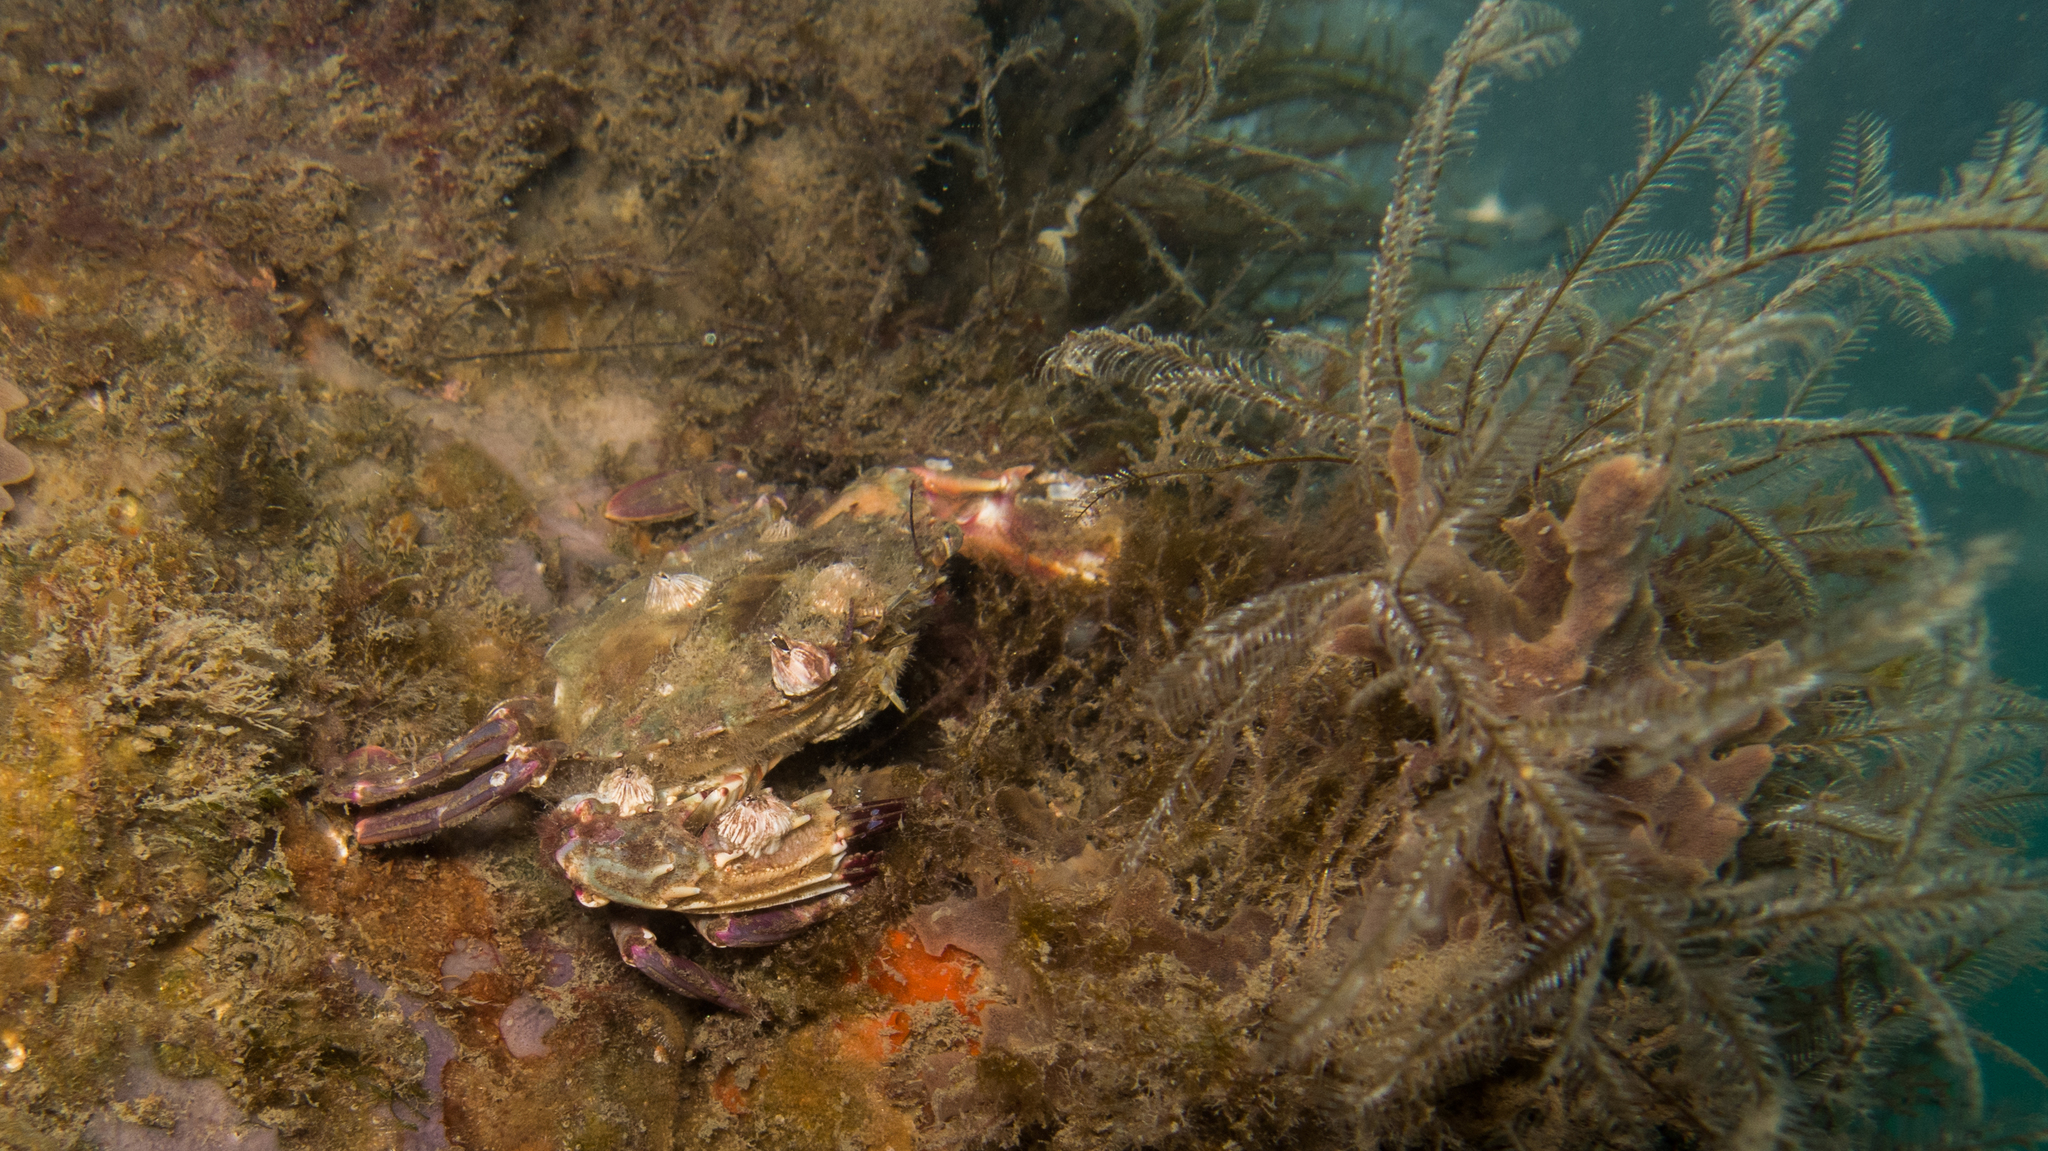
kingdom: Animalia
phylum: Arthropoda
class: Malacostraca
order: Decapoda
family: Portunidae
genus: Charybdis
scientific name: Charybdis hellerii
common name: Spiny hands
